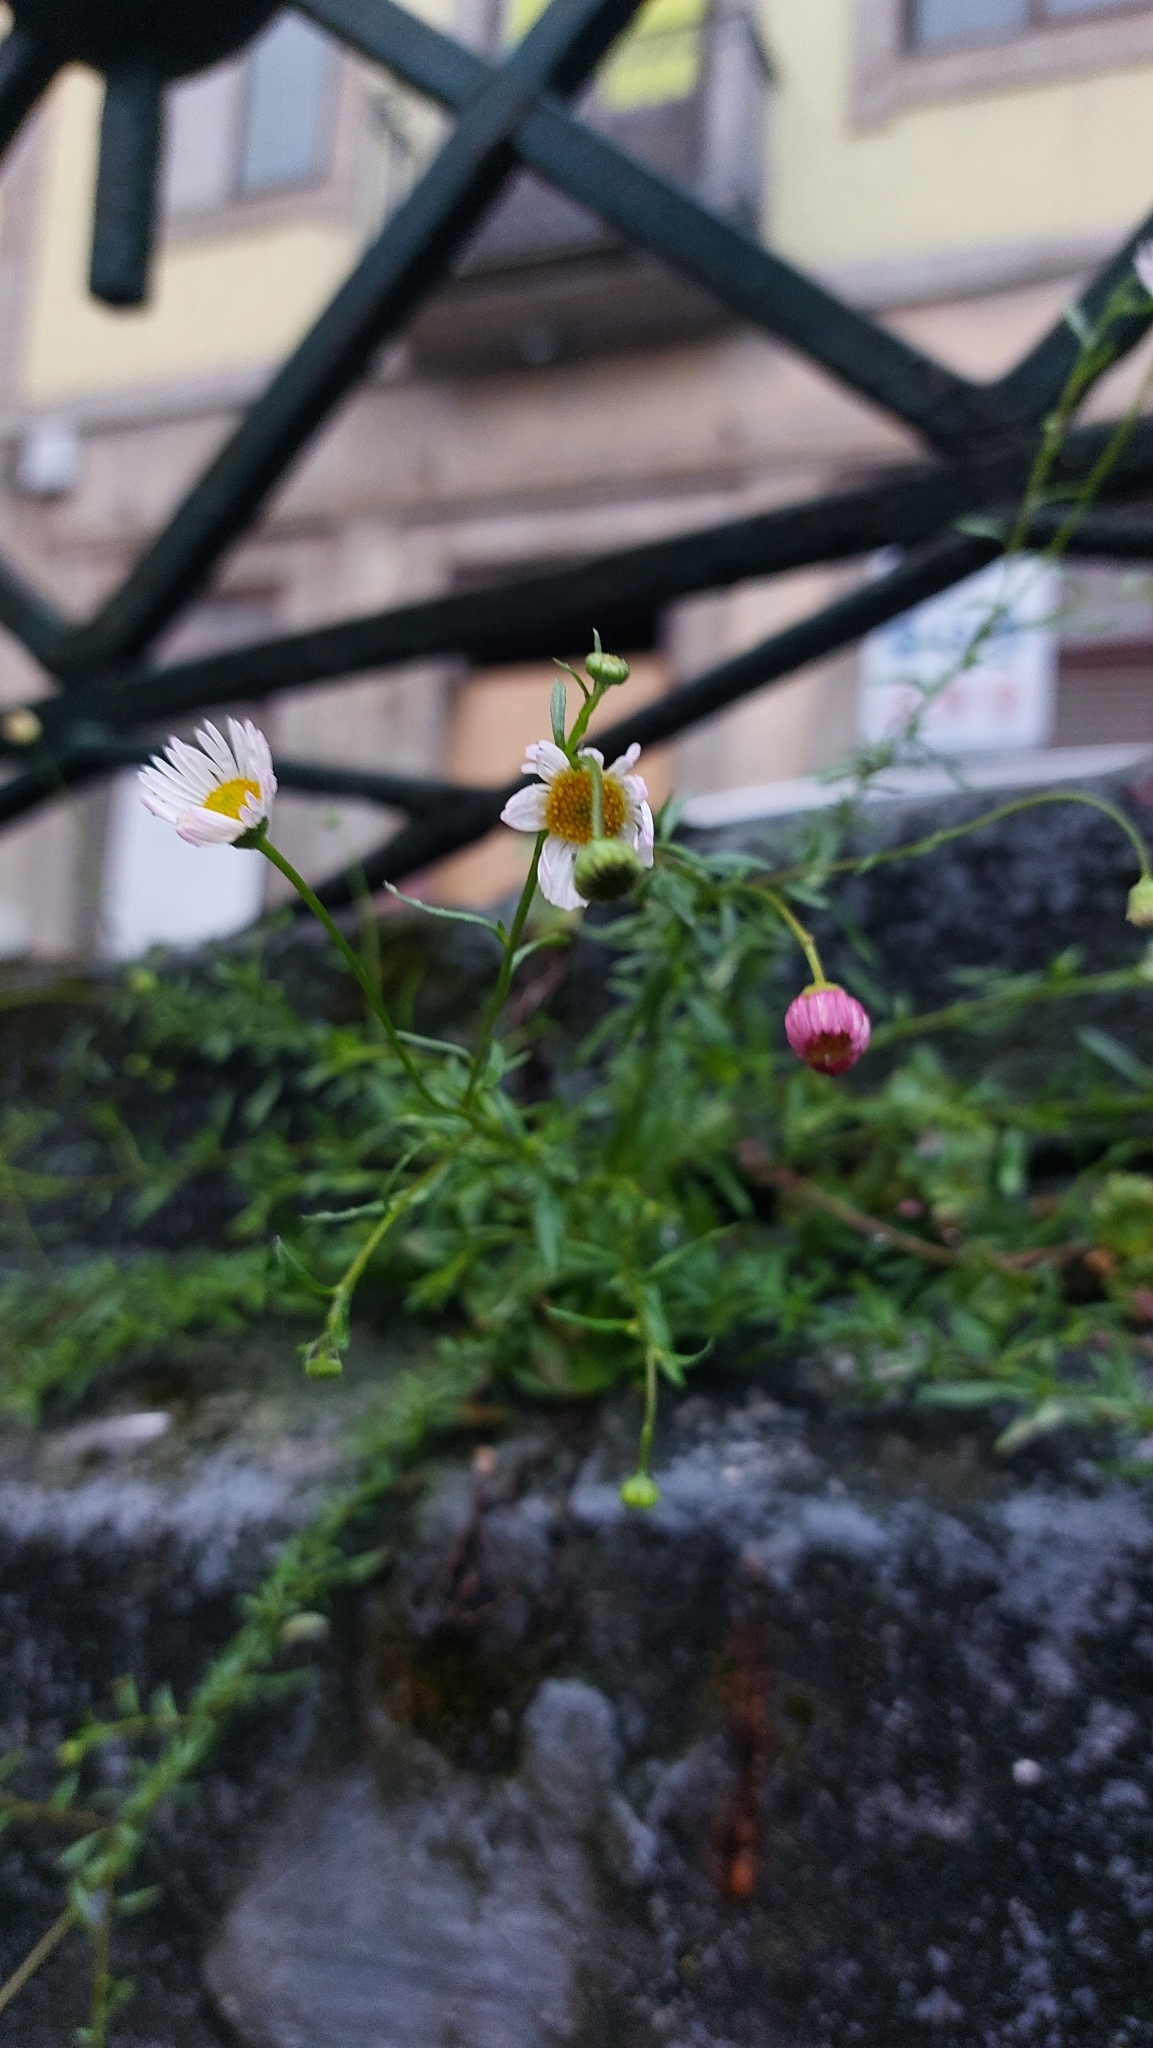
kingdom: Plantae
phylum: Tracheophyta
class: Magnoliopsida
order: Asterales
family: Asteraceae
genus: Erigeron
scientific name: Erigeron karvinskianus
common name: Mexican fleabane
